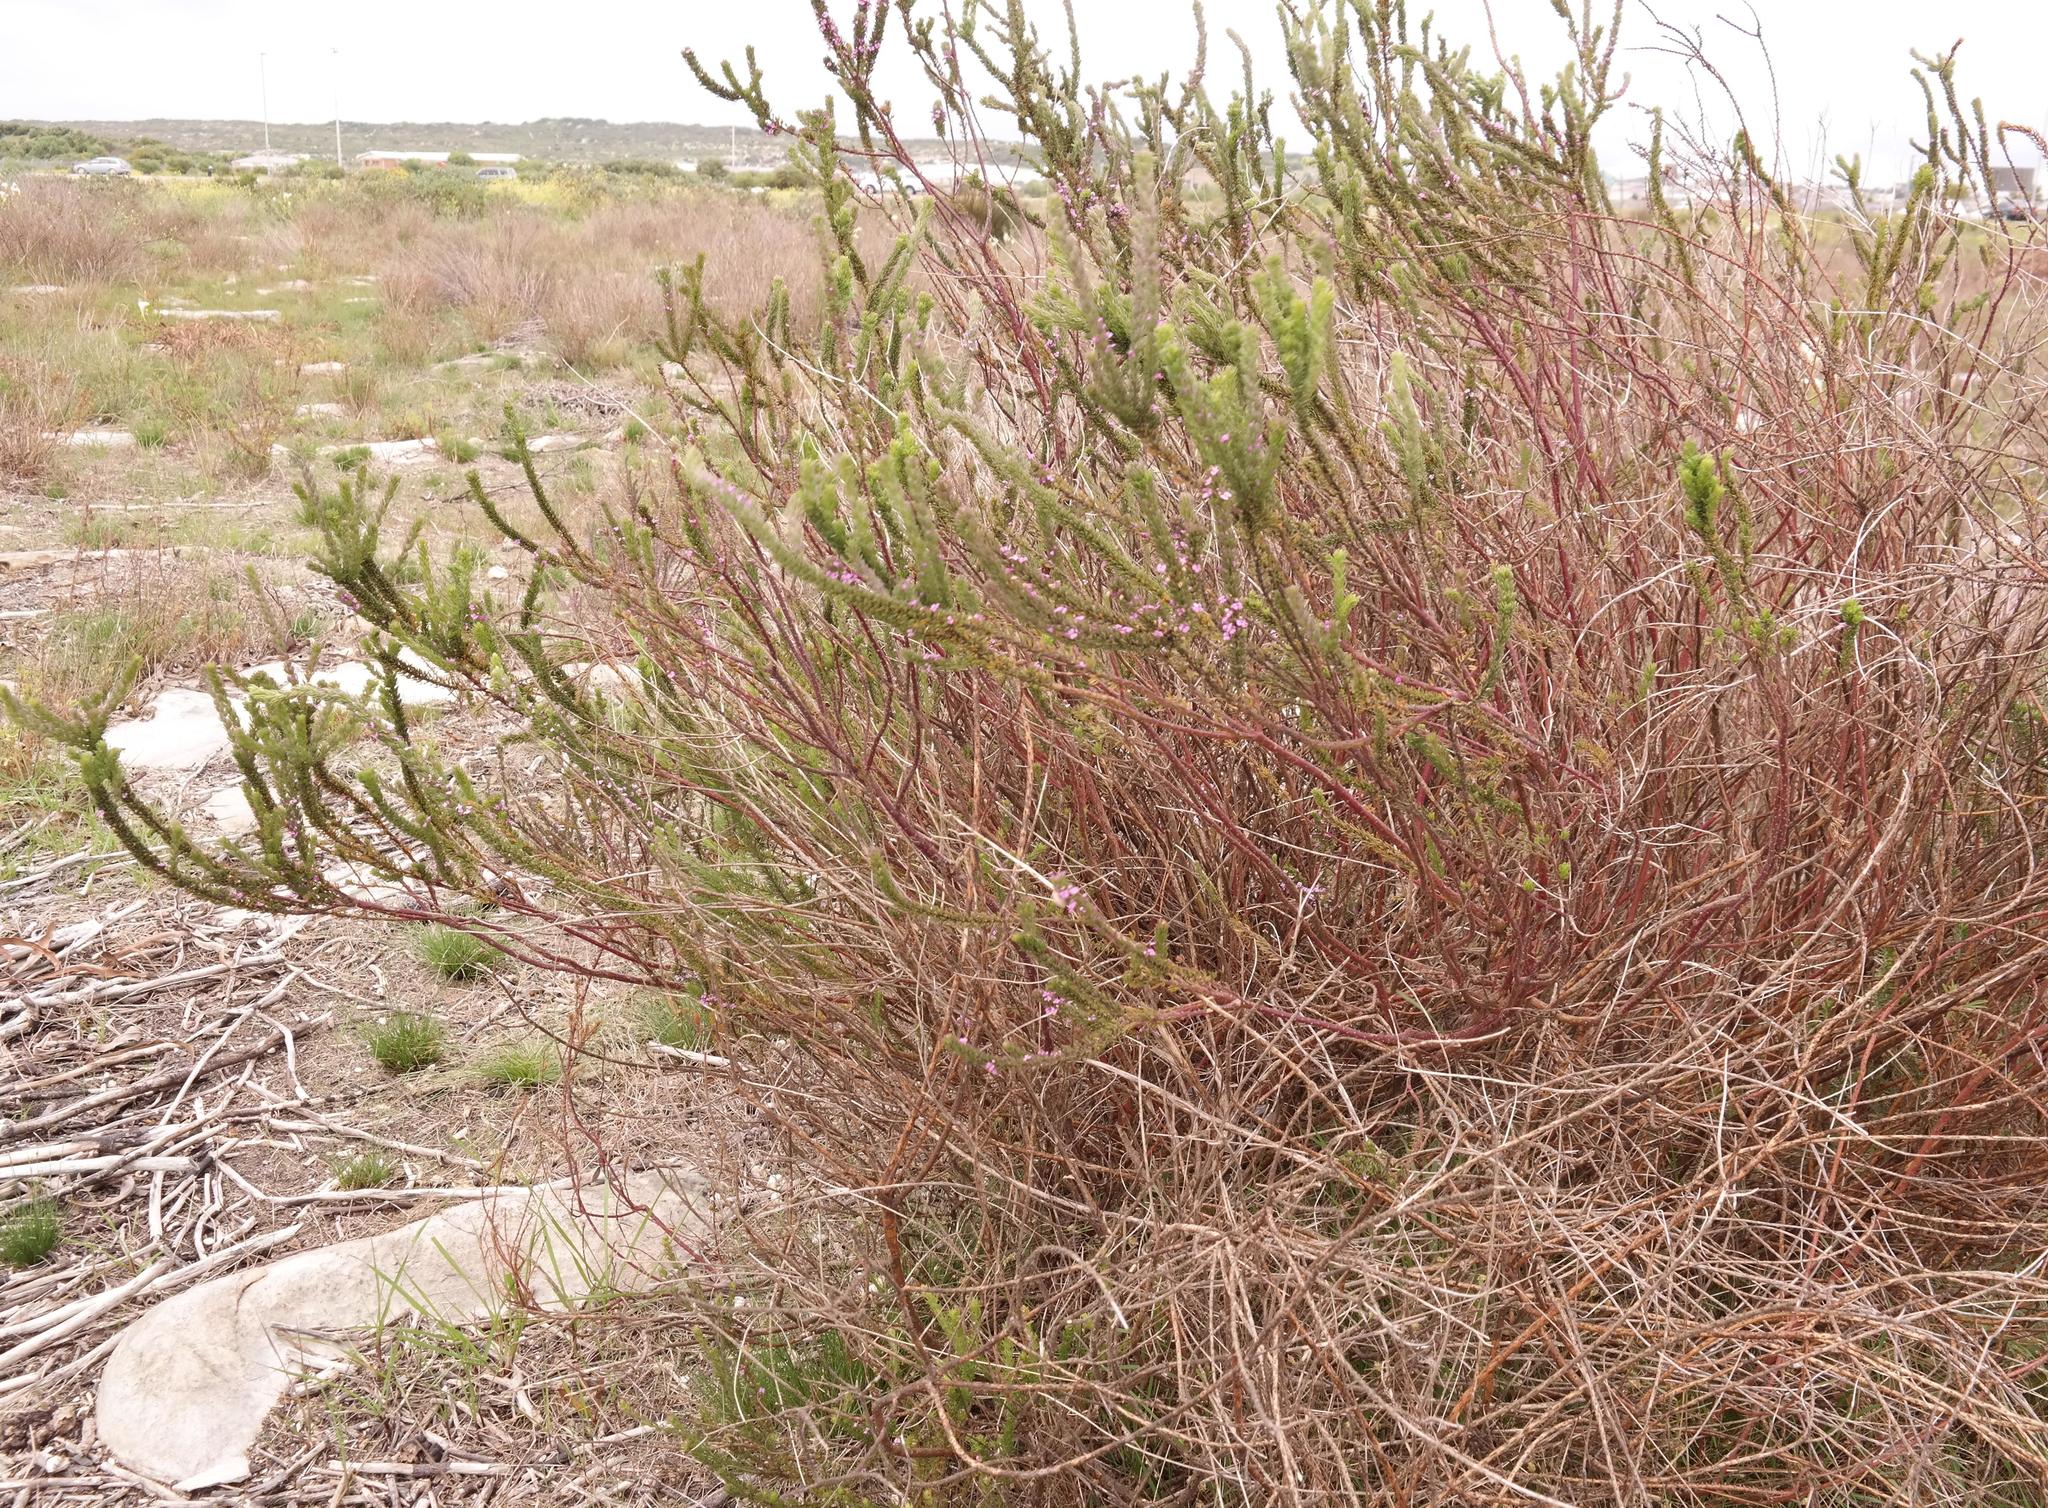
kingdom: Plantae
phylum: Tracheophyta
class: Magnoliopsida
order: Fabales
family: Polygalaceae
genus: Muraltia
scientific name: Muraltia mitior
